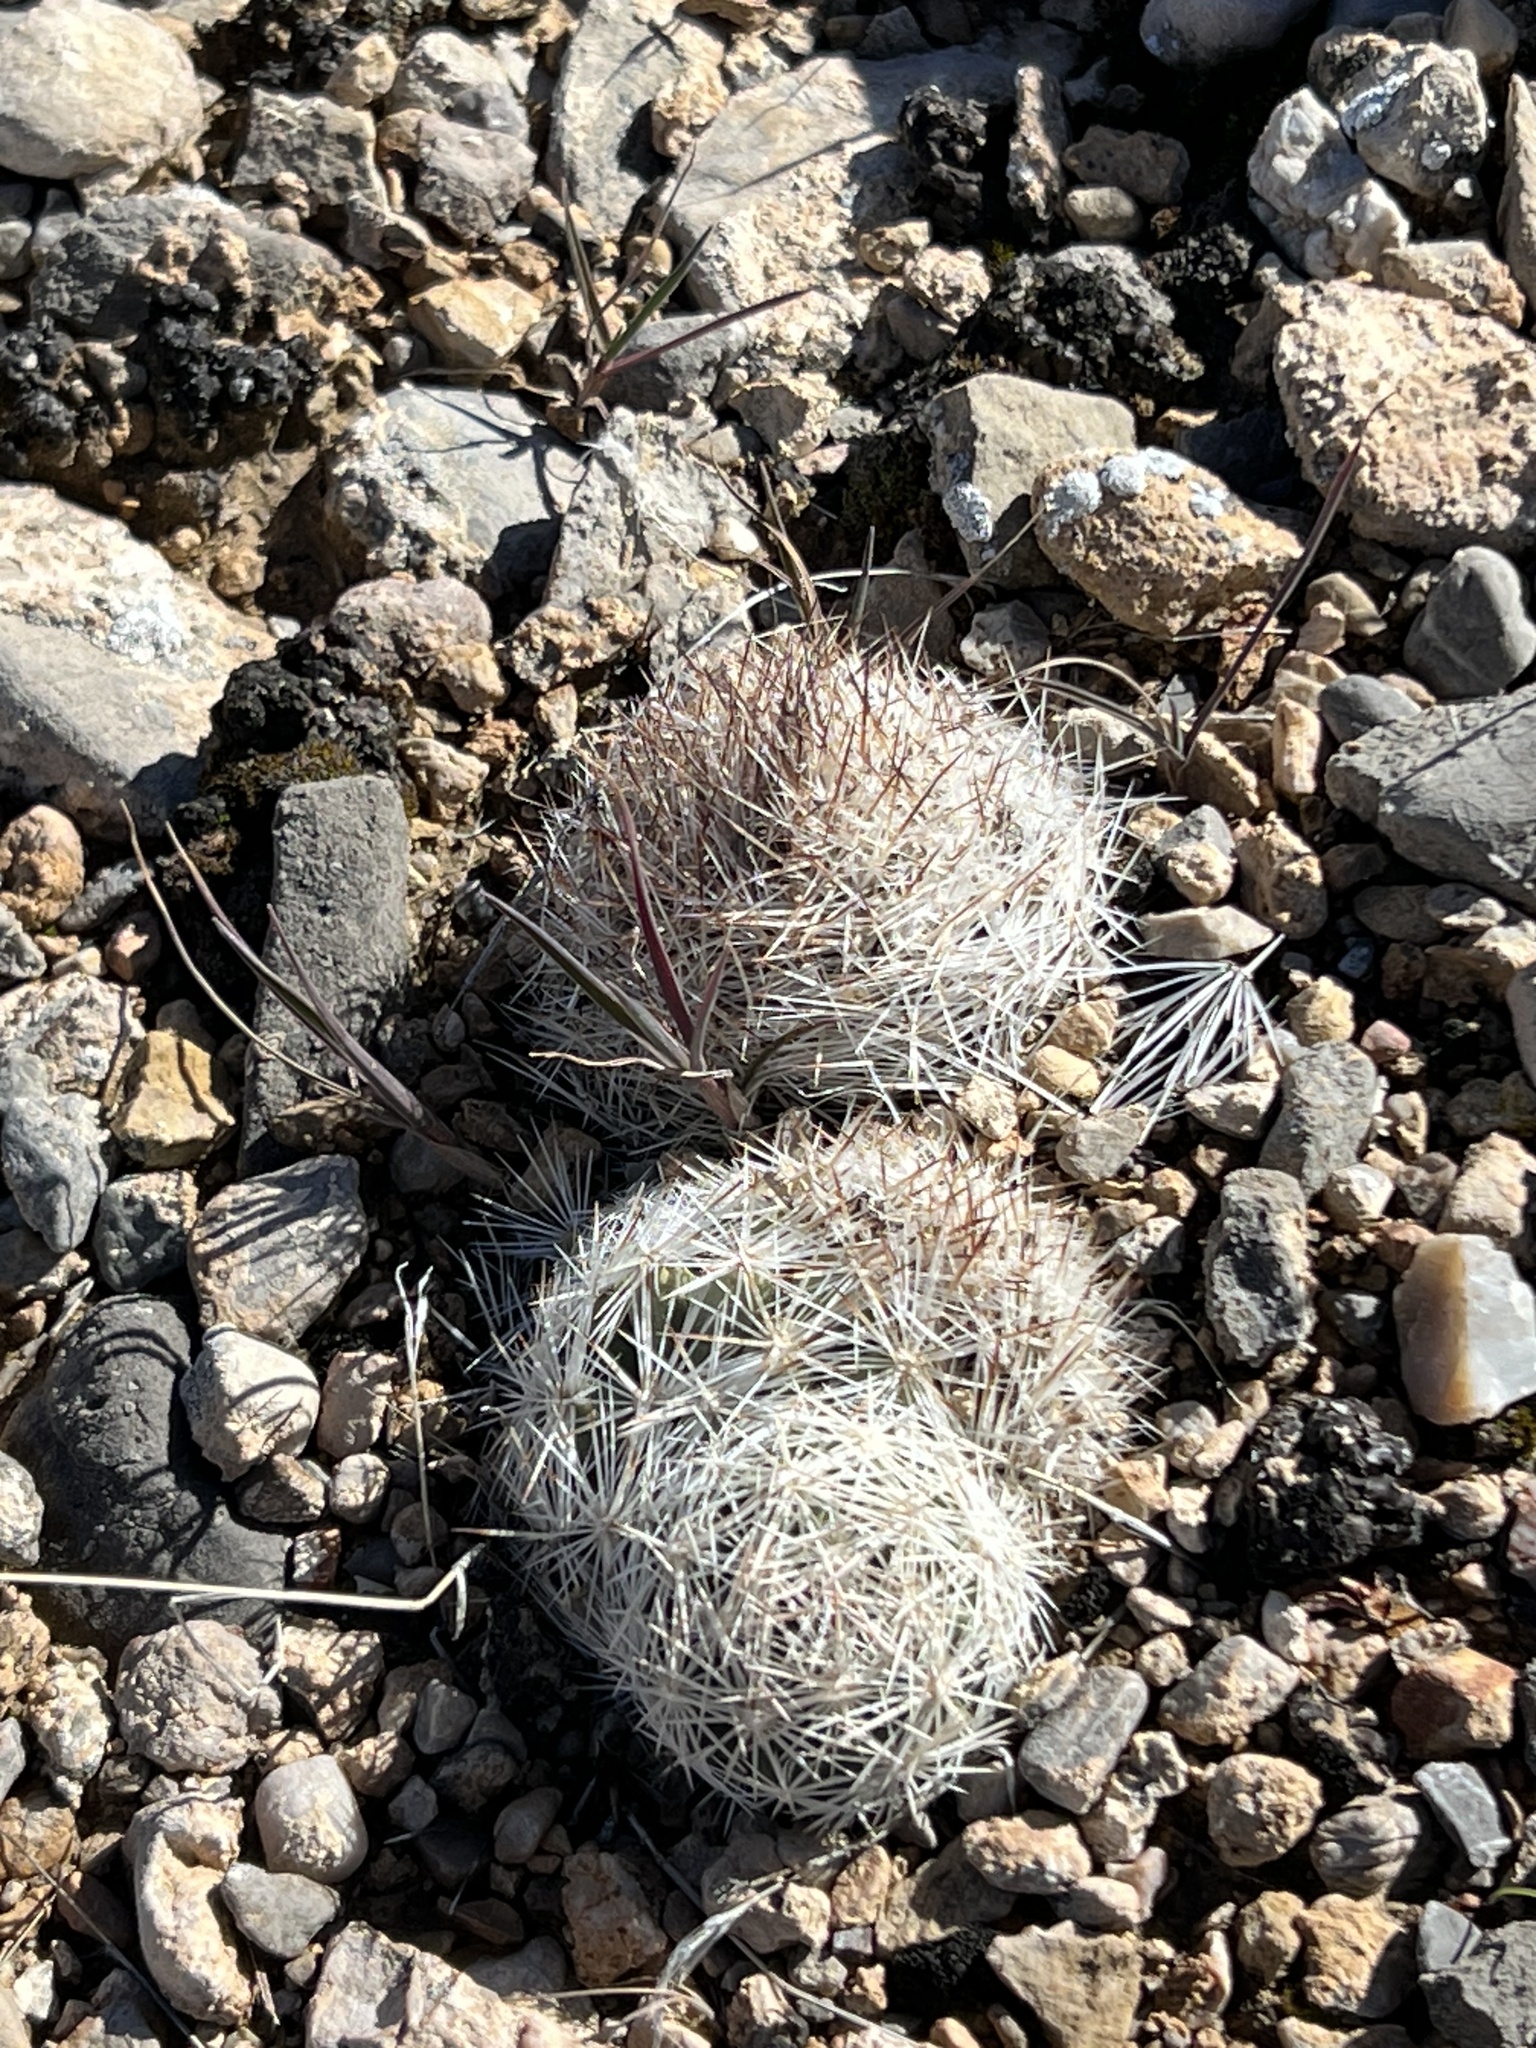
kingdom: Plantae
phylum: Tracheophyta
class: Magnoliopsida
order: Caryophyllales
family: Cactaceae
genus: Pelecyphora
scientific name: Pelecyphora dasyacantha
